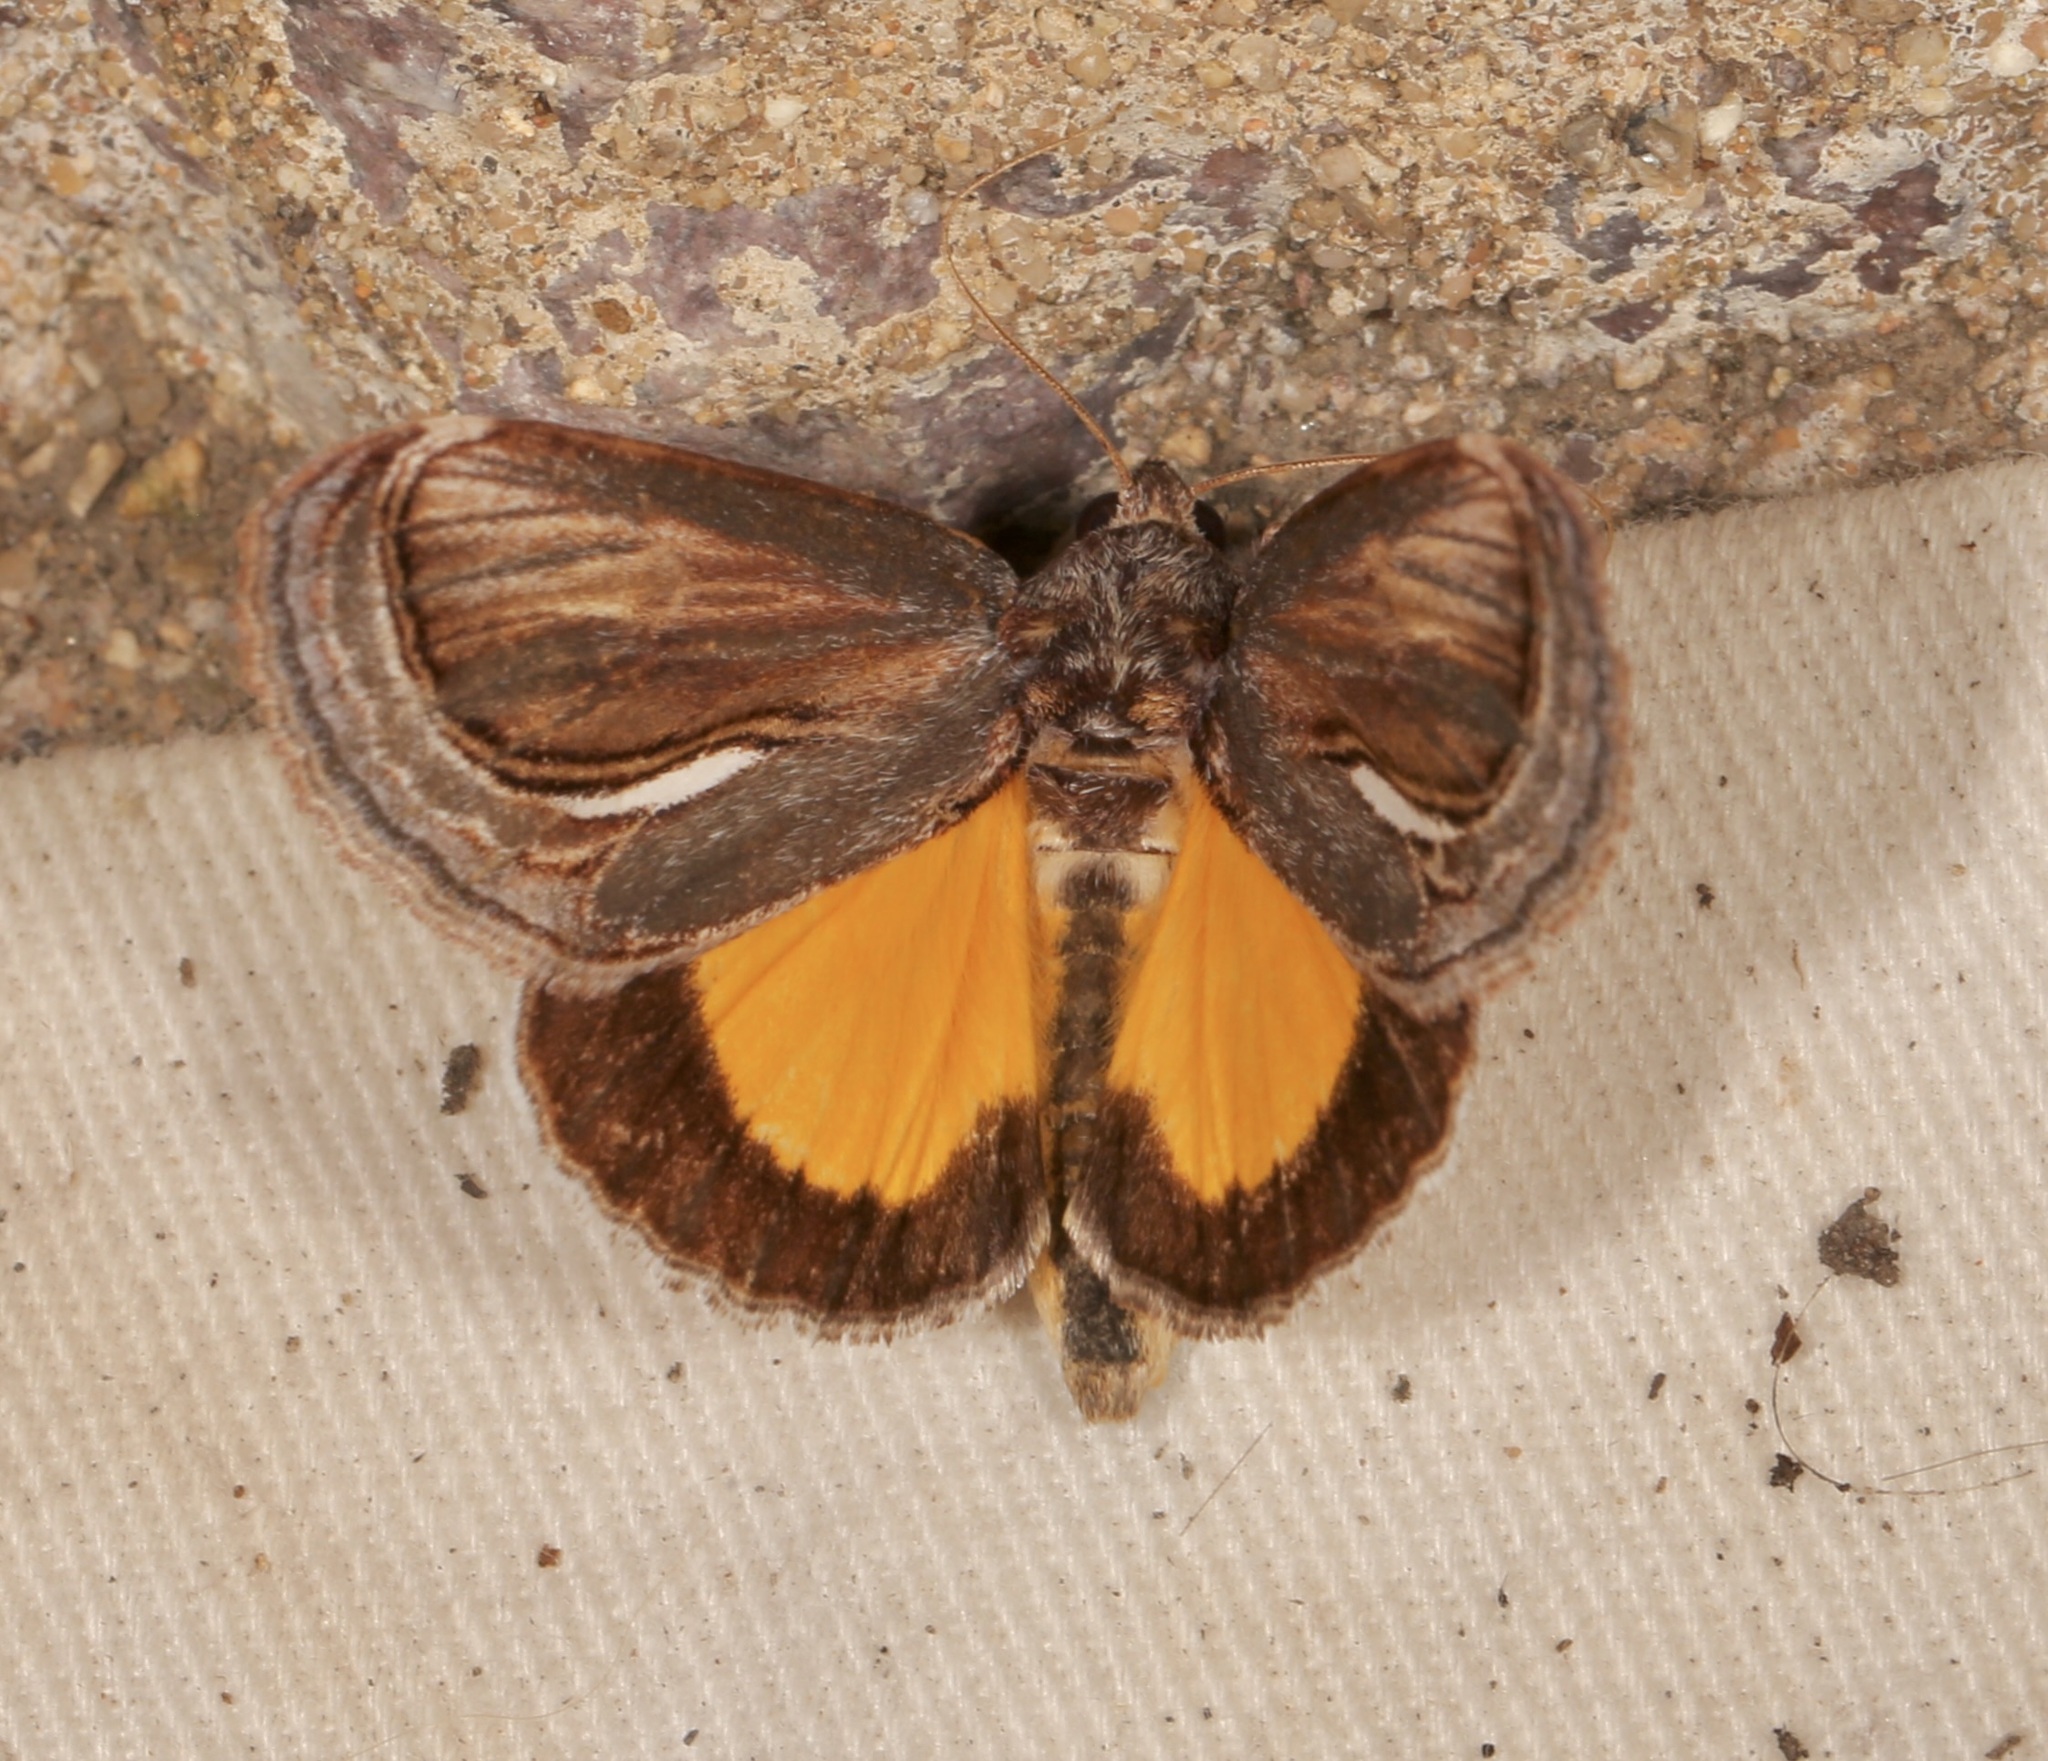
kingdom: Animalia
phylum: Arthropoda
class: Insecta
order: Lepidoptera
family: Noctuidae
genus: Gerrodes
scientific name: Gerrodes minatea
